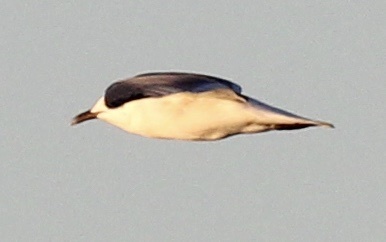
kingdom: Animalia
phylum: Chordata
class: Aves
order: Charadriiformes
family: Laridae
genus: Leucophaeus
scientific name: Leucophaeus atricilla
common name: Laughing gull
